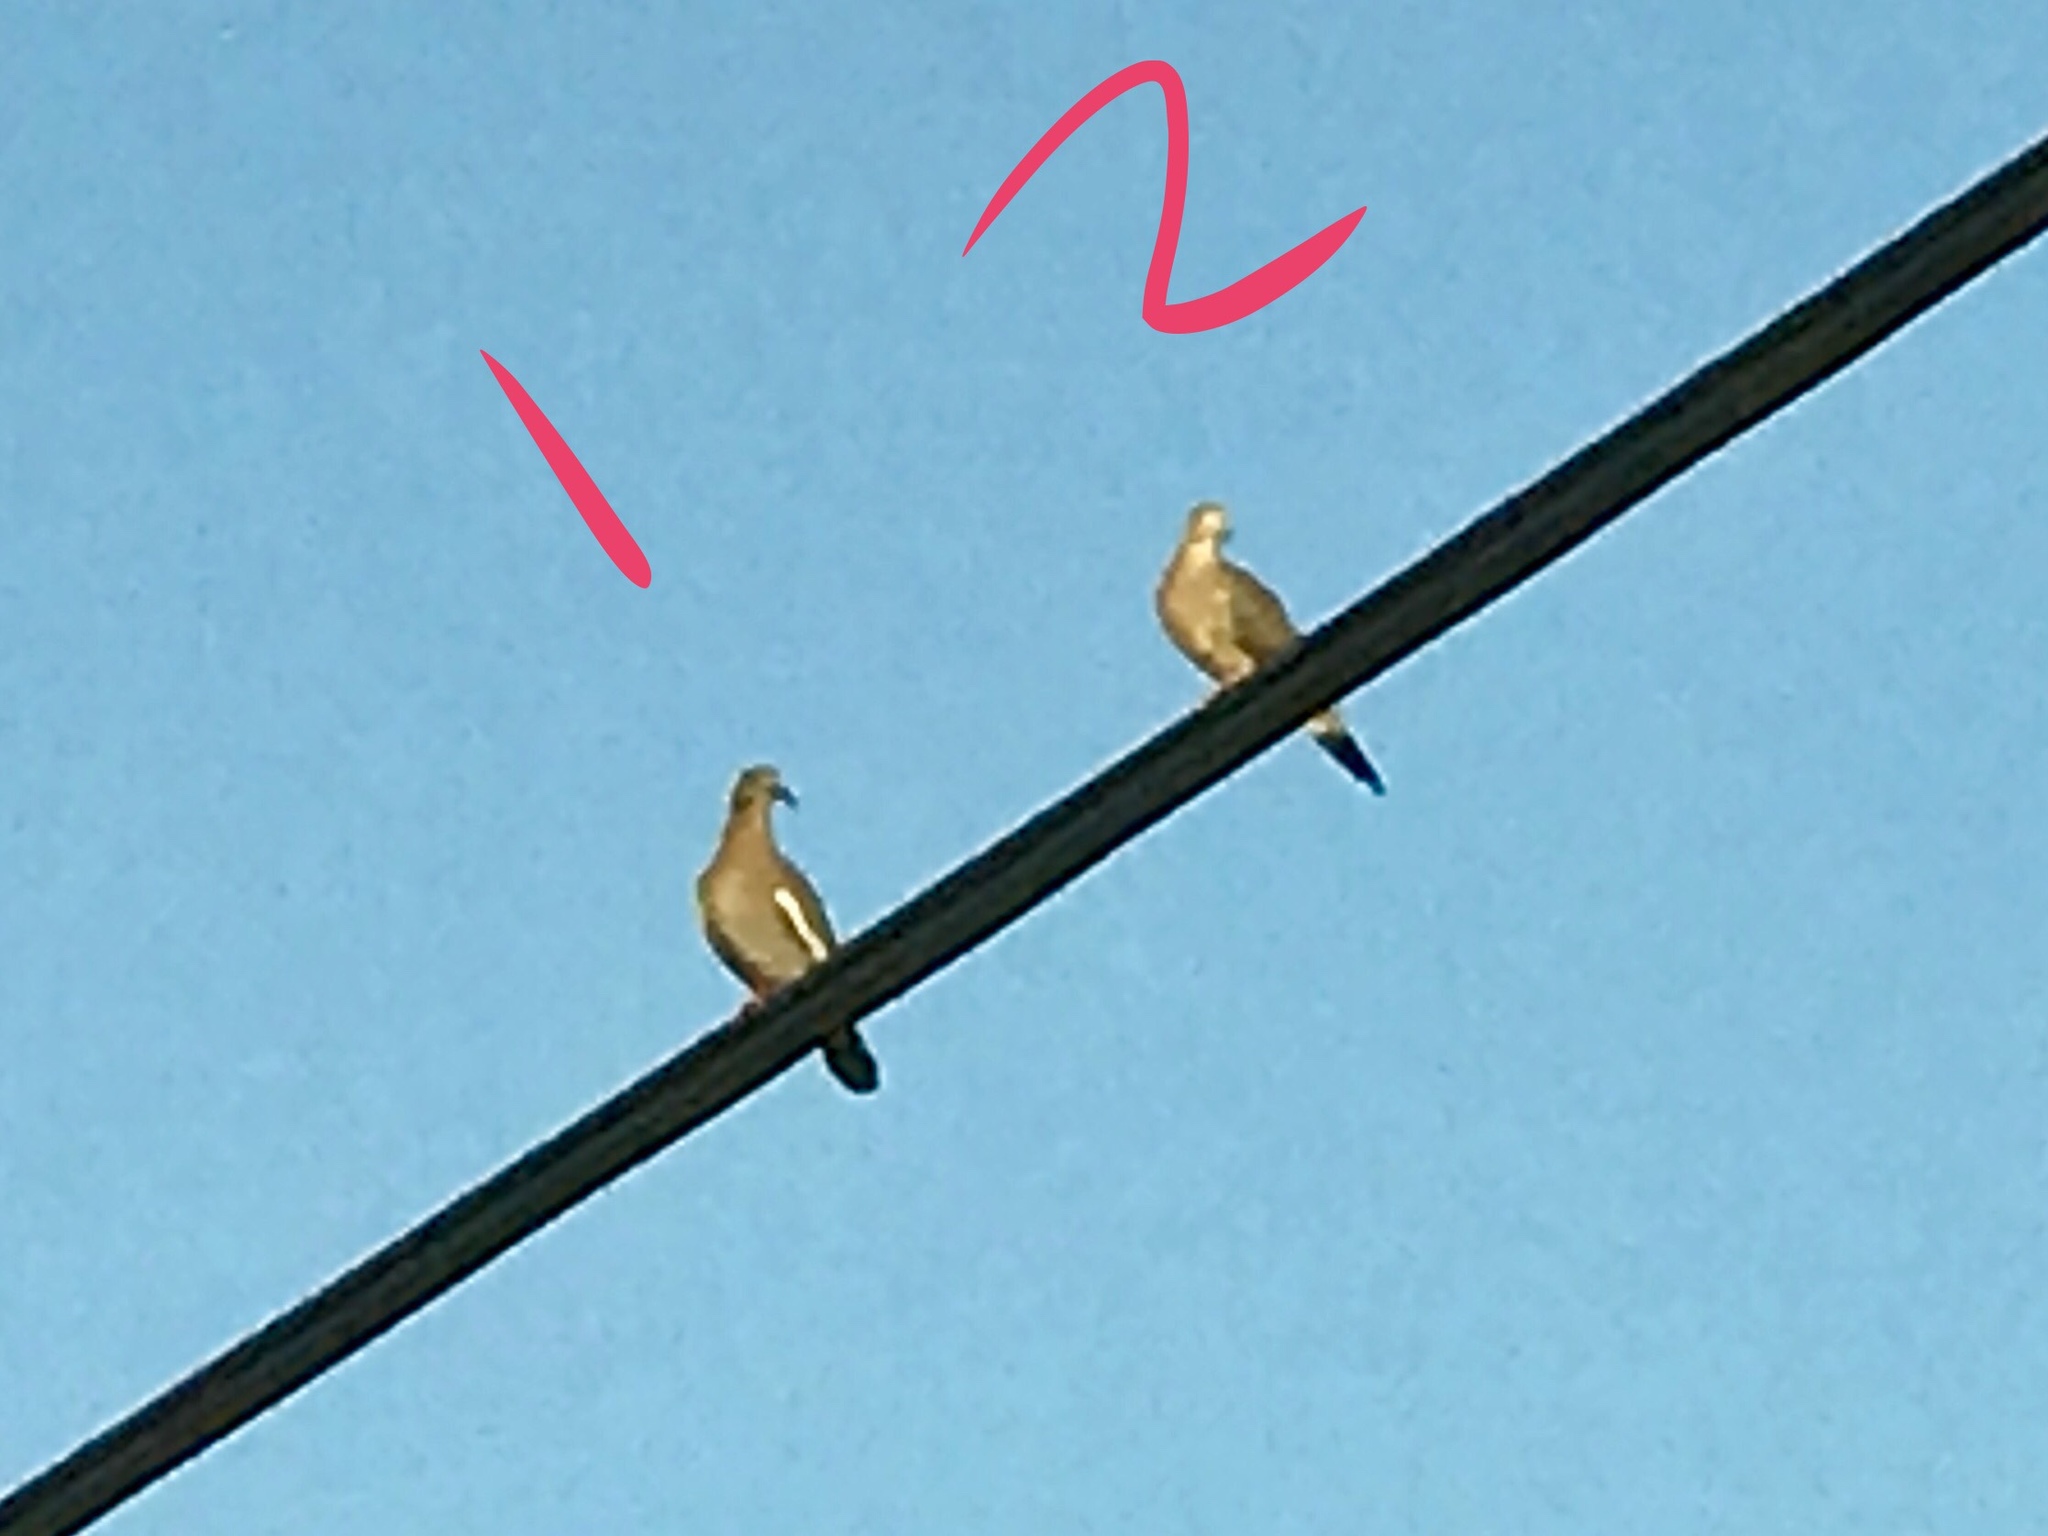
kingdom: Animalia
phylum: Chordata
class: Aves
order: Columbiformes
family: Columbidae
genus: Zenaida
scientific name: Zenaida asiatica
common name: White-winged dove
